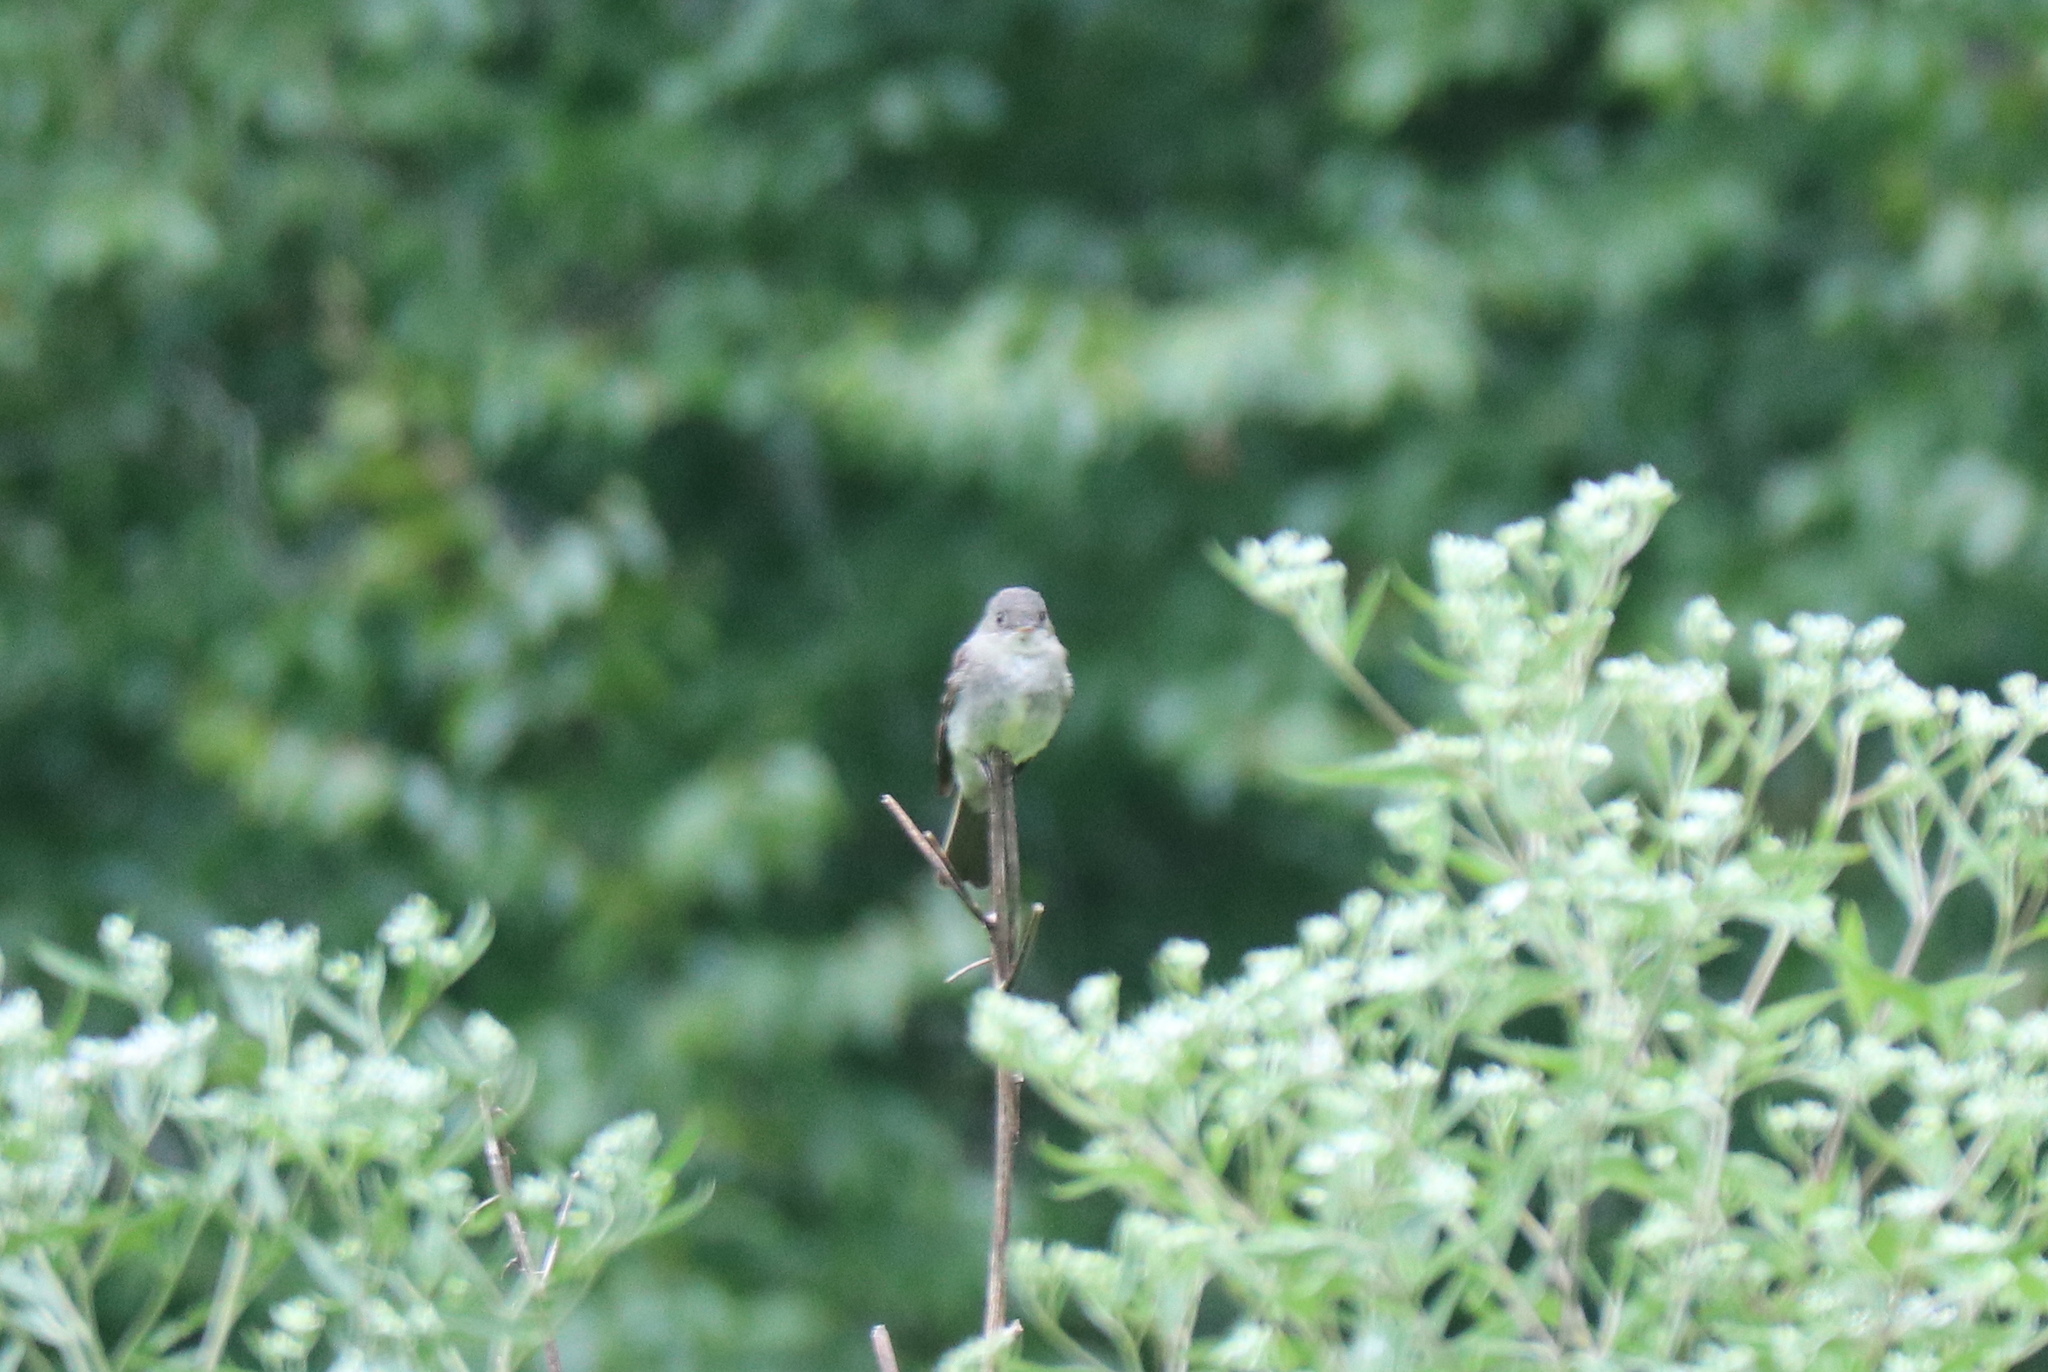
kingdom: Animalia
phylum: Chordata
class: Aves
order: Passeriformes
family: Tyrannidae
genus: Contopus
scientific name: Contopus virens
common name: Eastern wood-pewee
